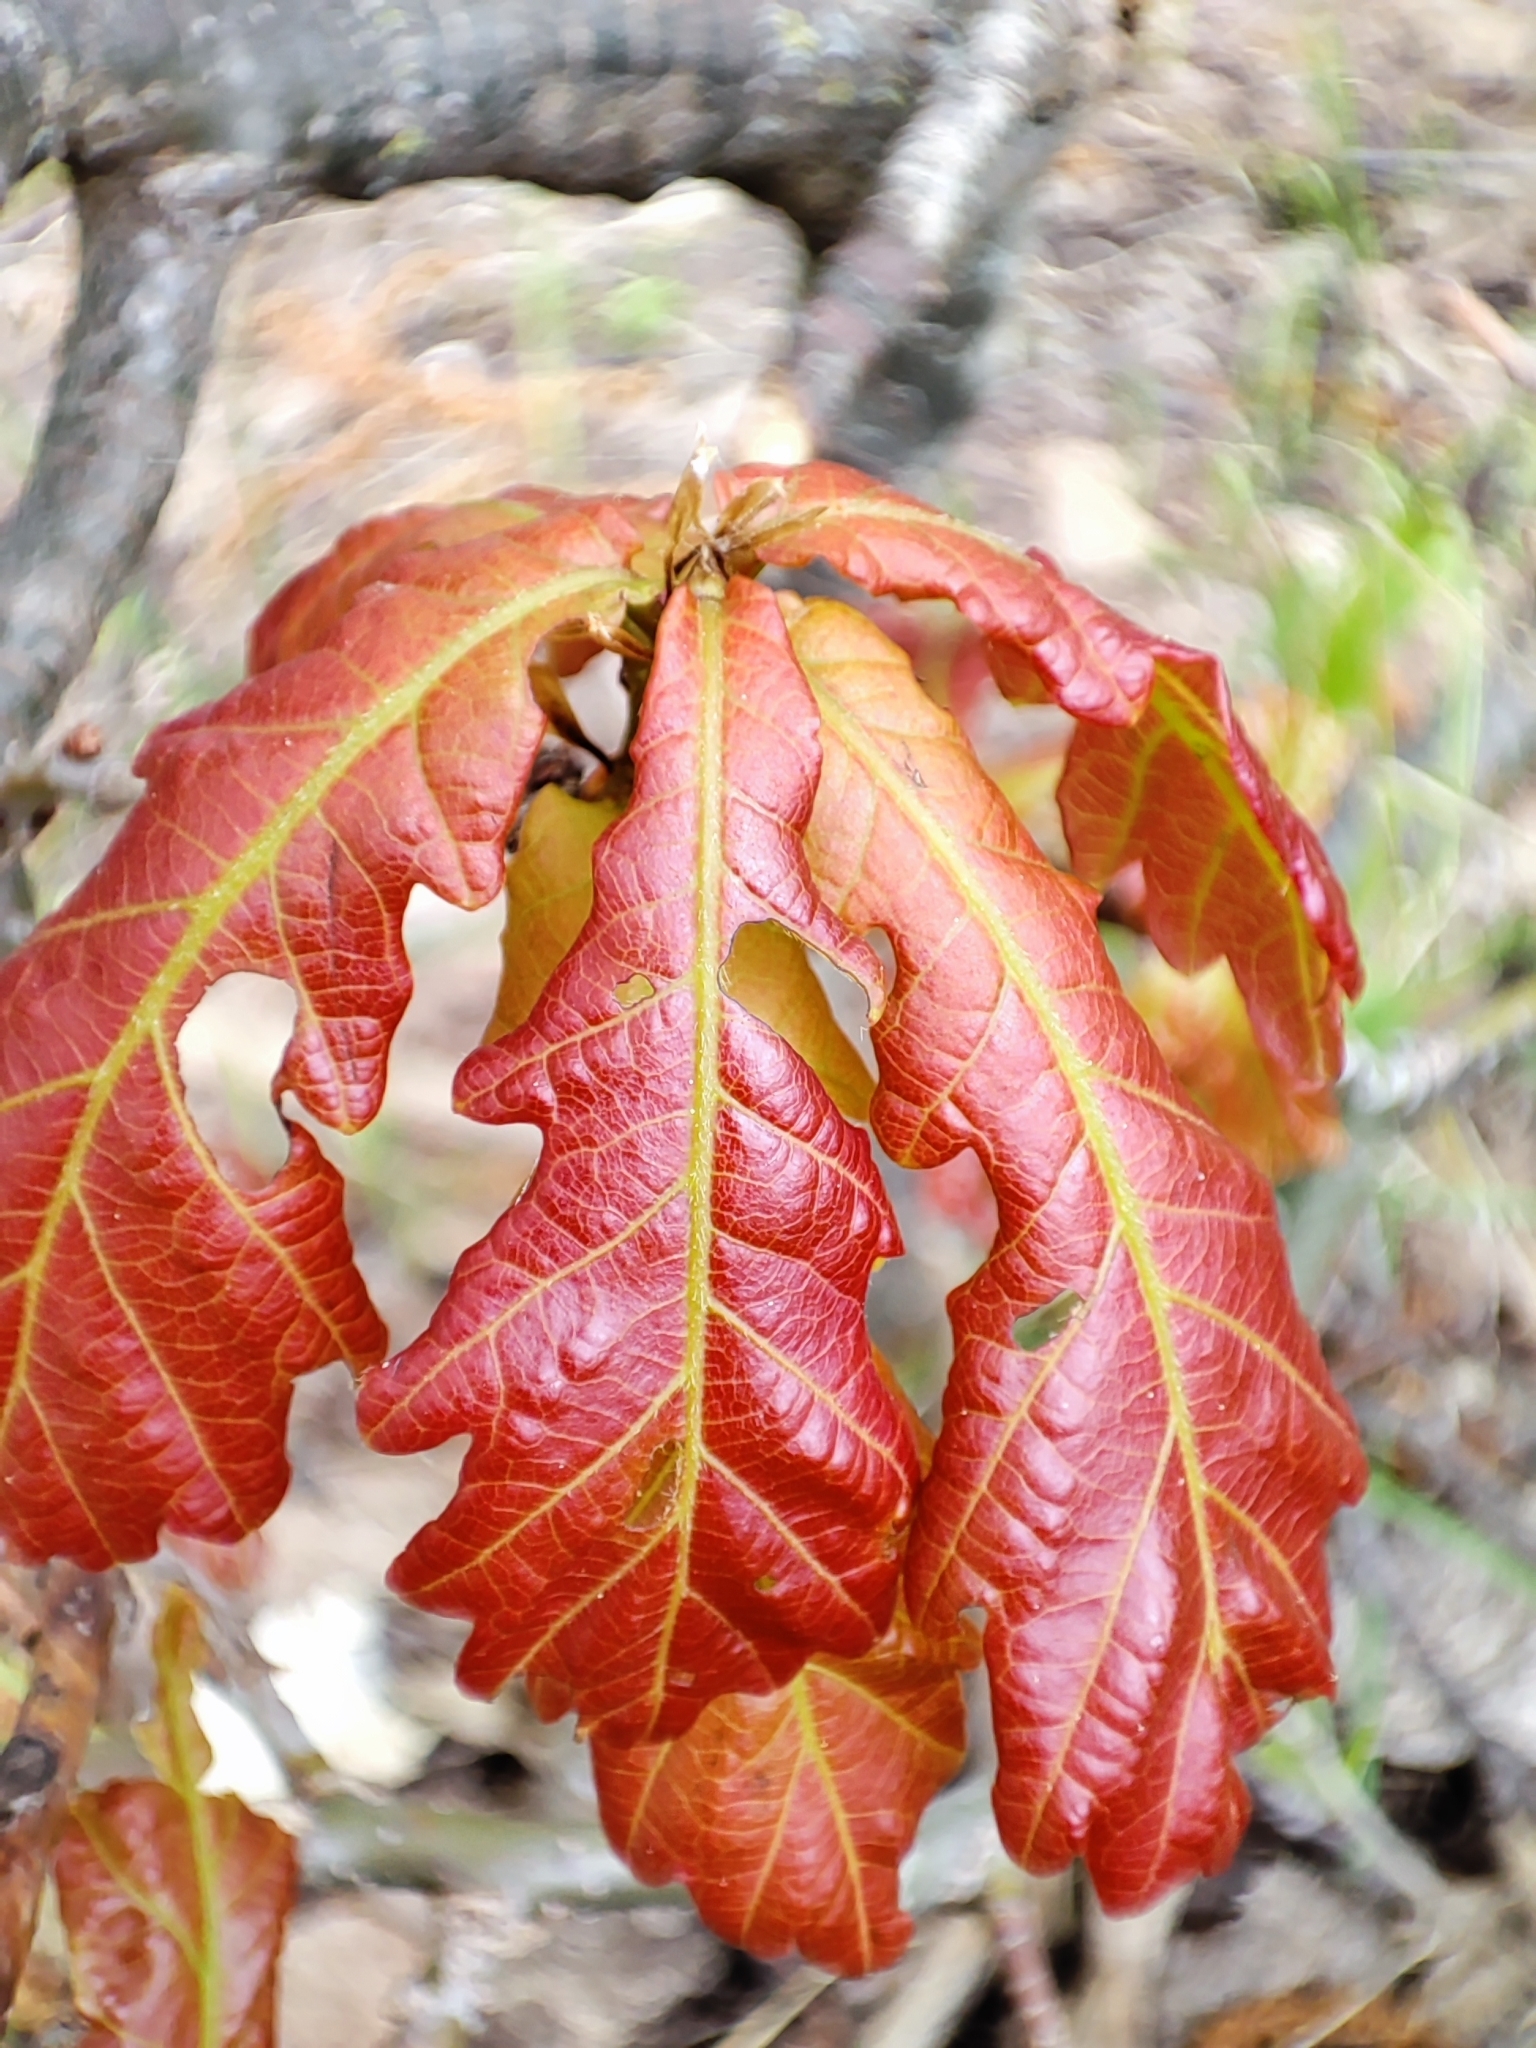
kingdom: Plantae
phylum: Tracheophyta
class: Magnoliopsida
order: Fagales
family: Fagaceae
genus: Quercus
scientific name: Quercus robur
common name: Pedunculate oak
